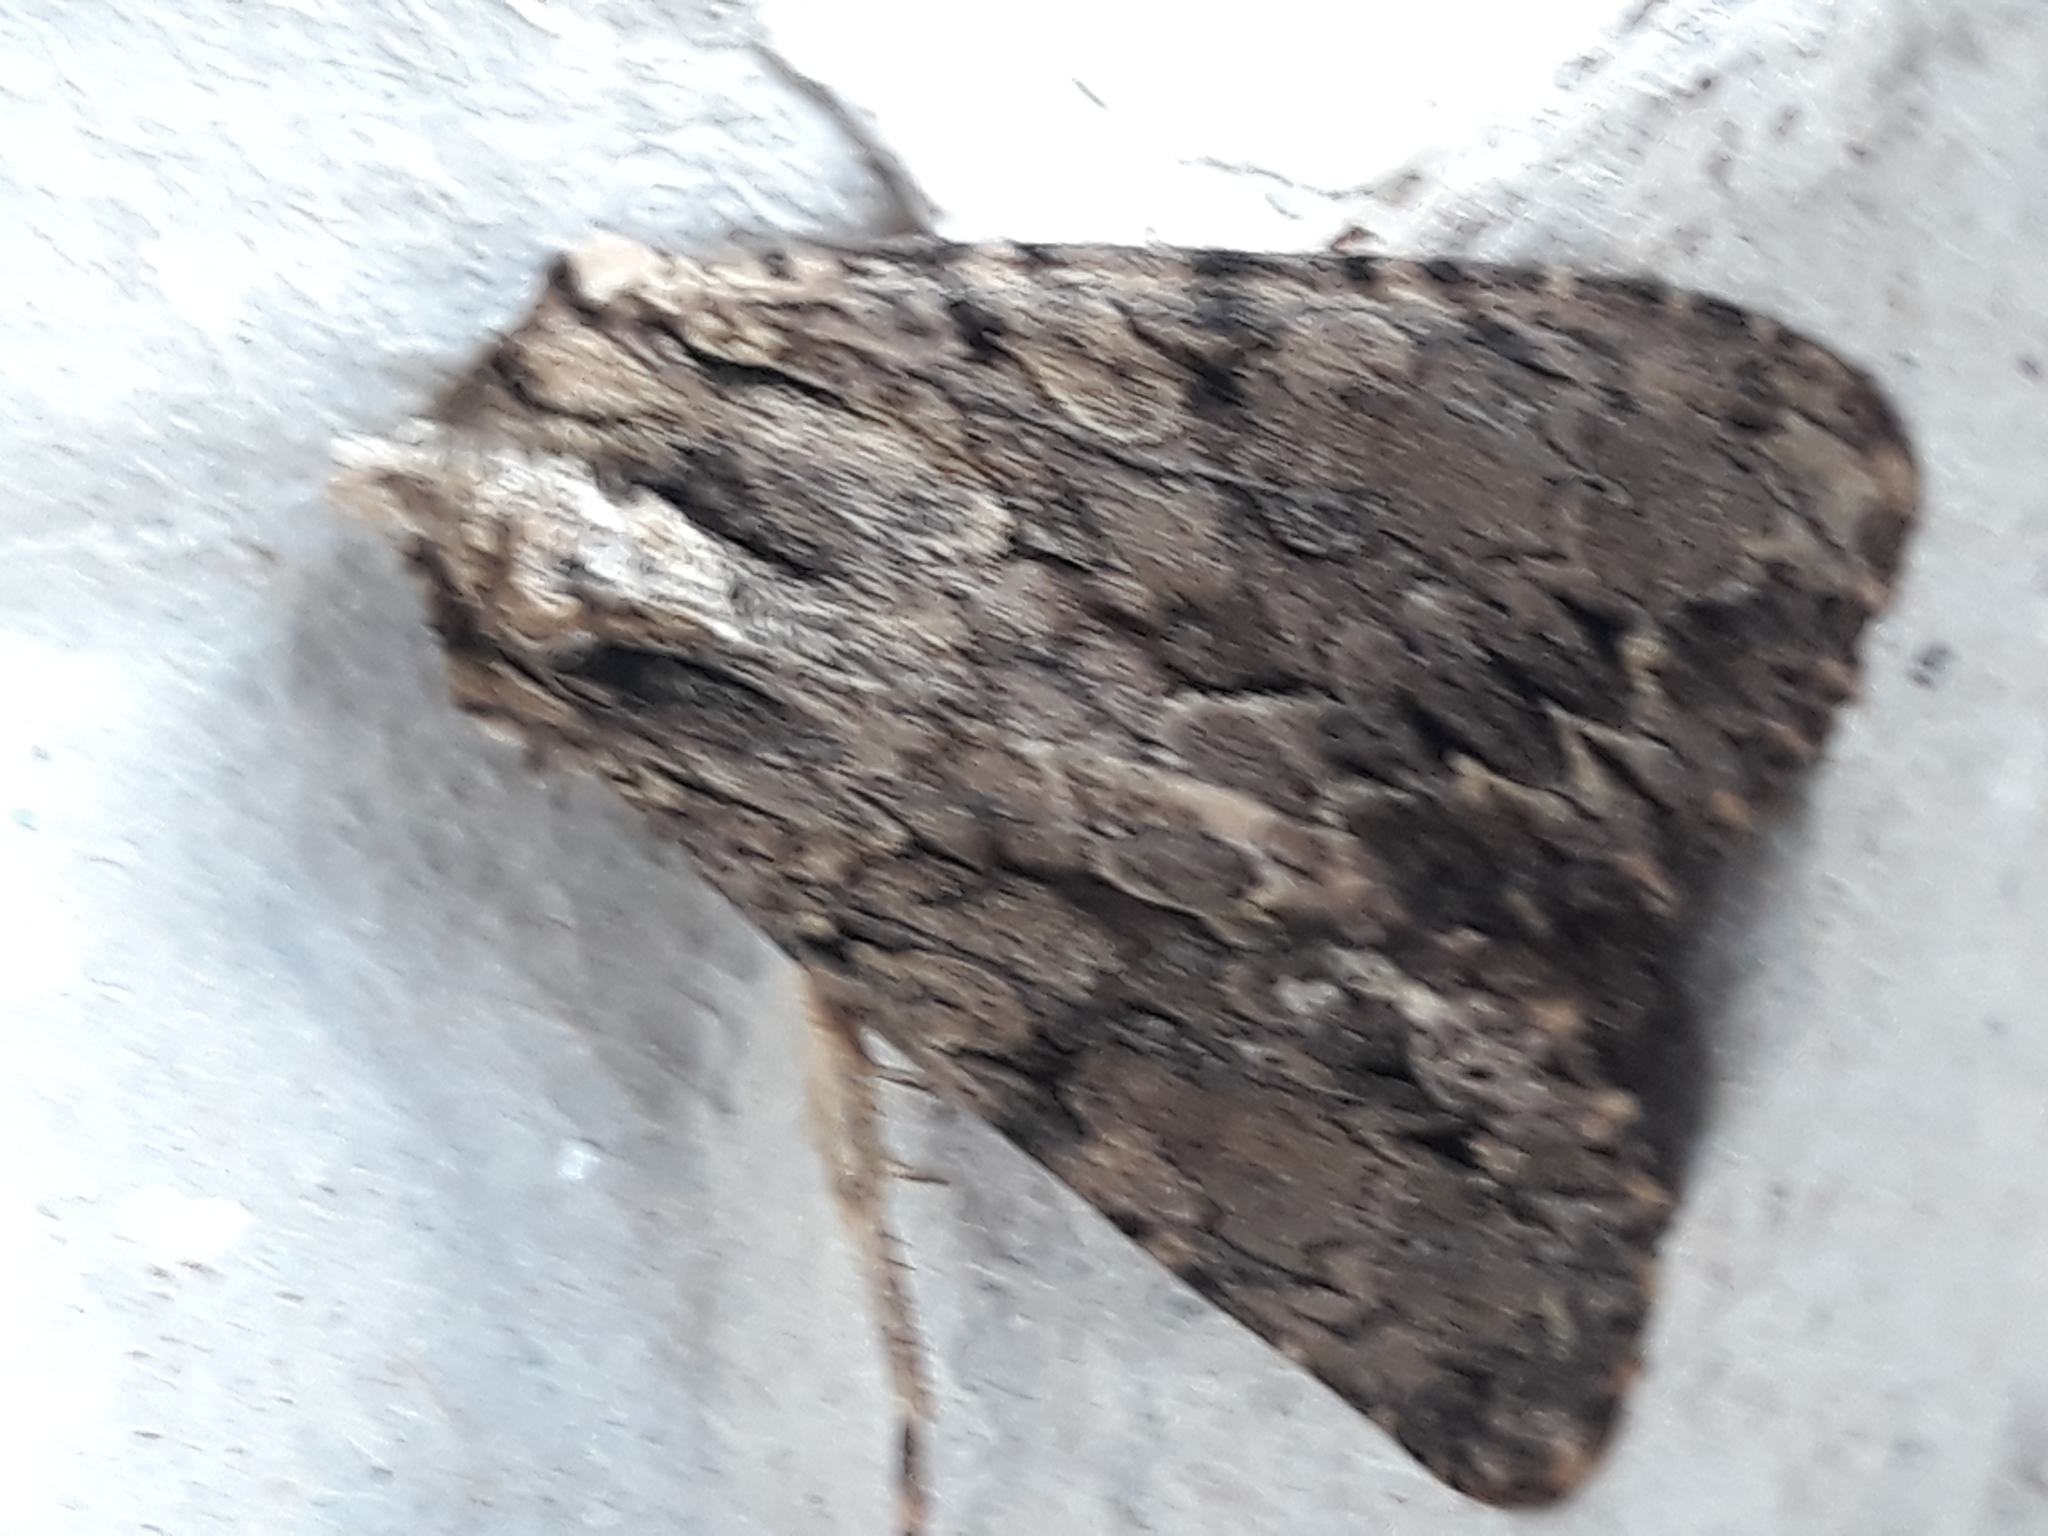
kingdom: Animalia
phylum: Arthropoda
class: Insecta
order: Lepidoptera
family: Noctuidae
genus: Apamea
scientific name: Apamea monoglypha
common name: Dark arches
